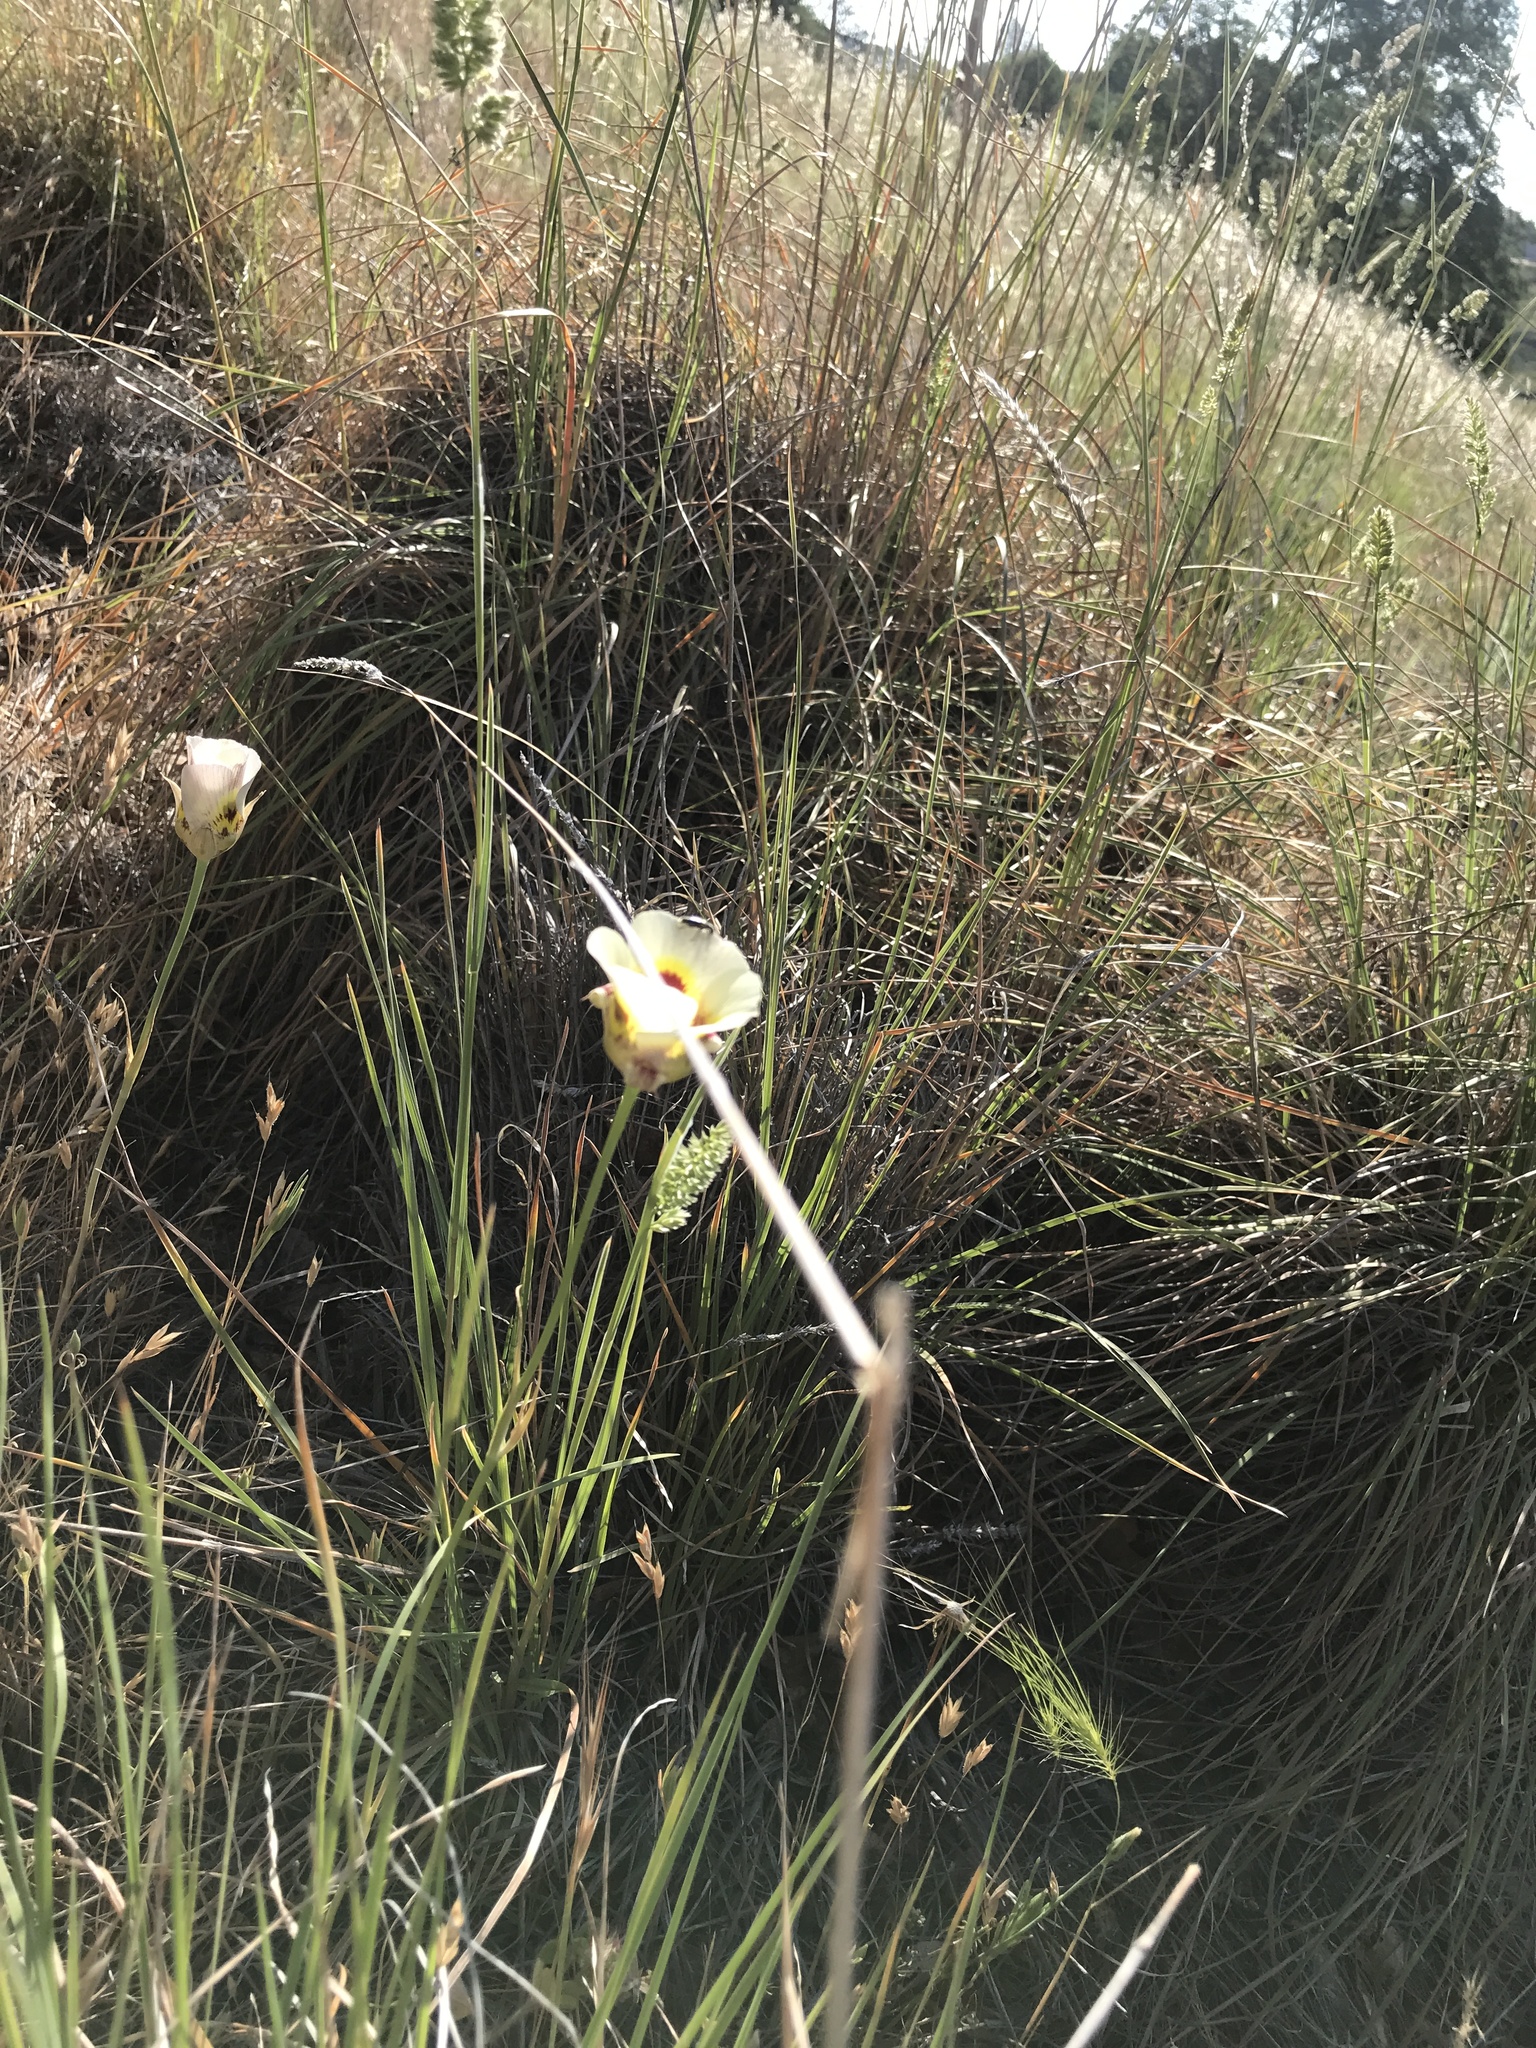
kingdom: Plantae
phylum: Tracheophyta
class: Liliopsida
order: Liliales
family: Liliaceae
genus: Calochortus
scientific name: Calochortus superbus
